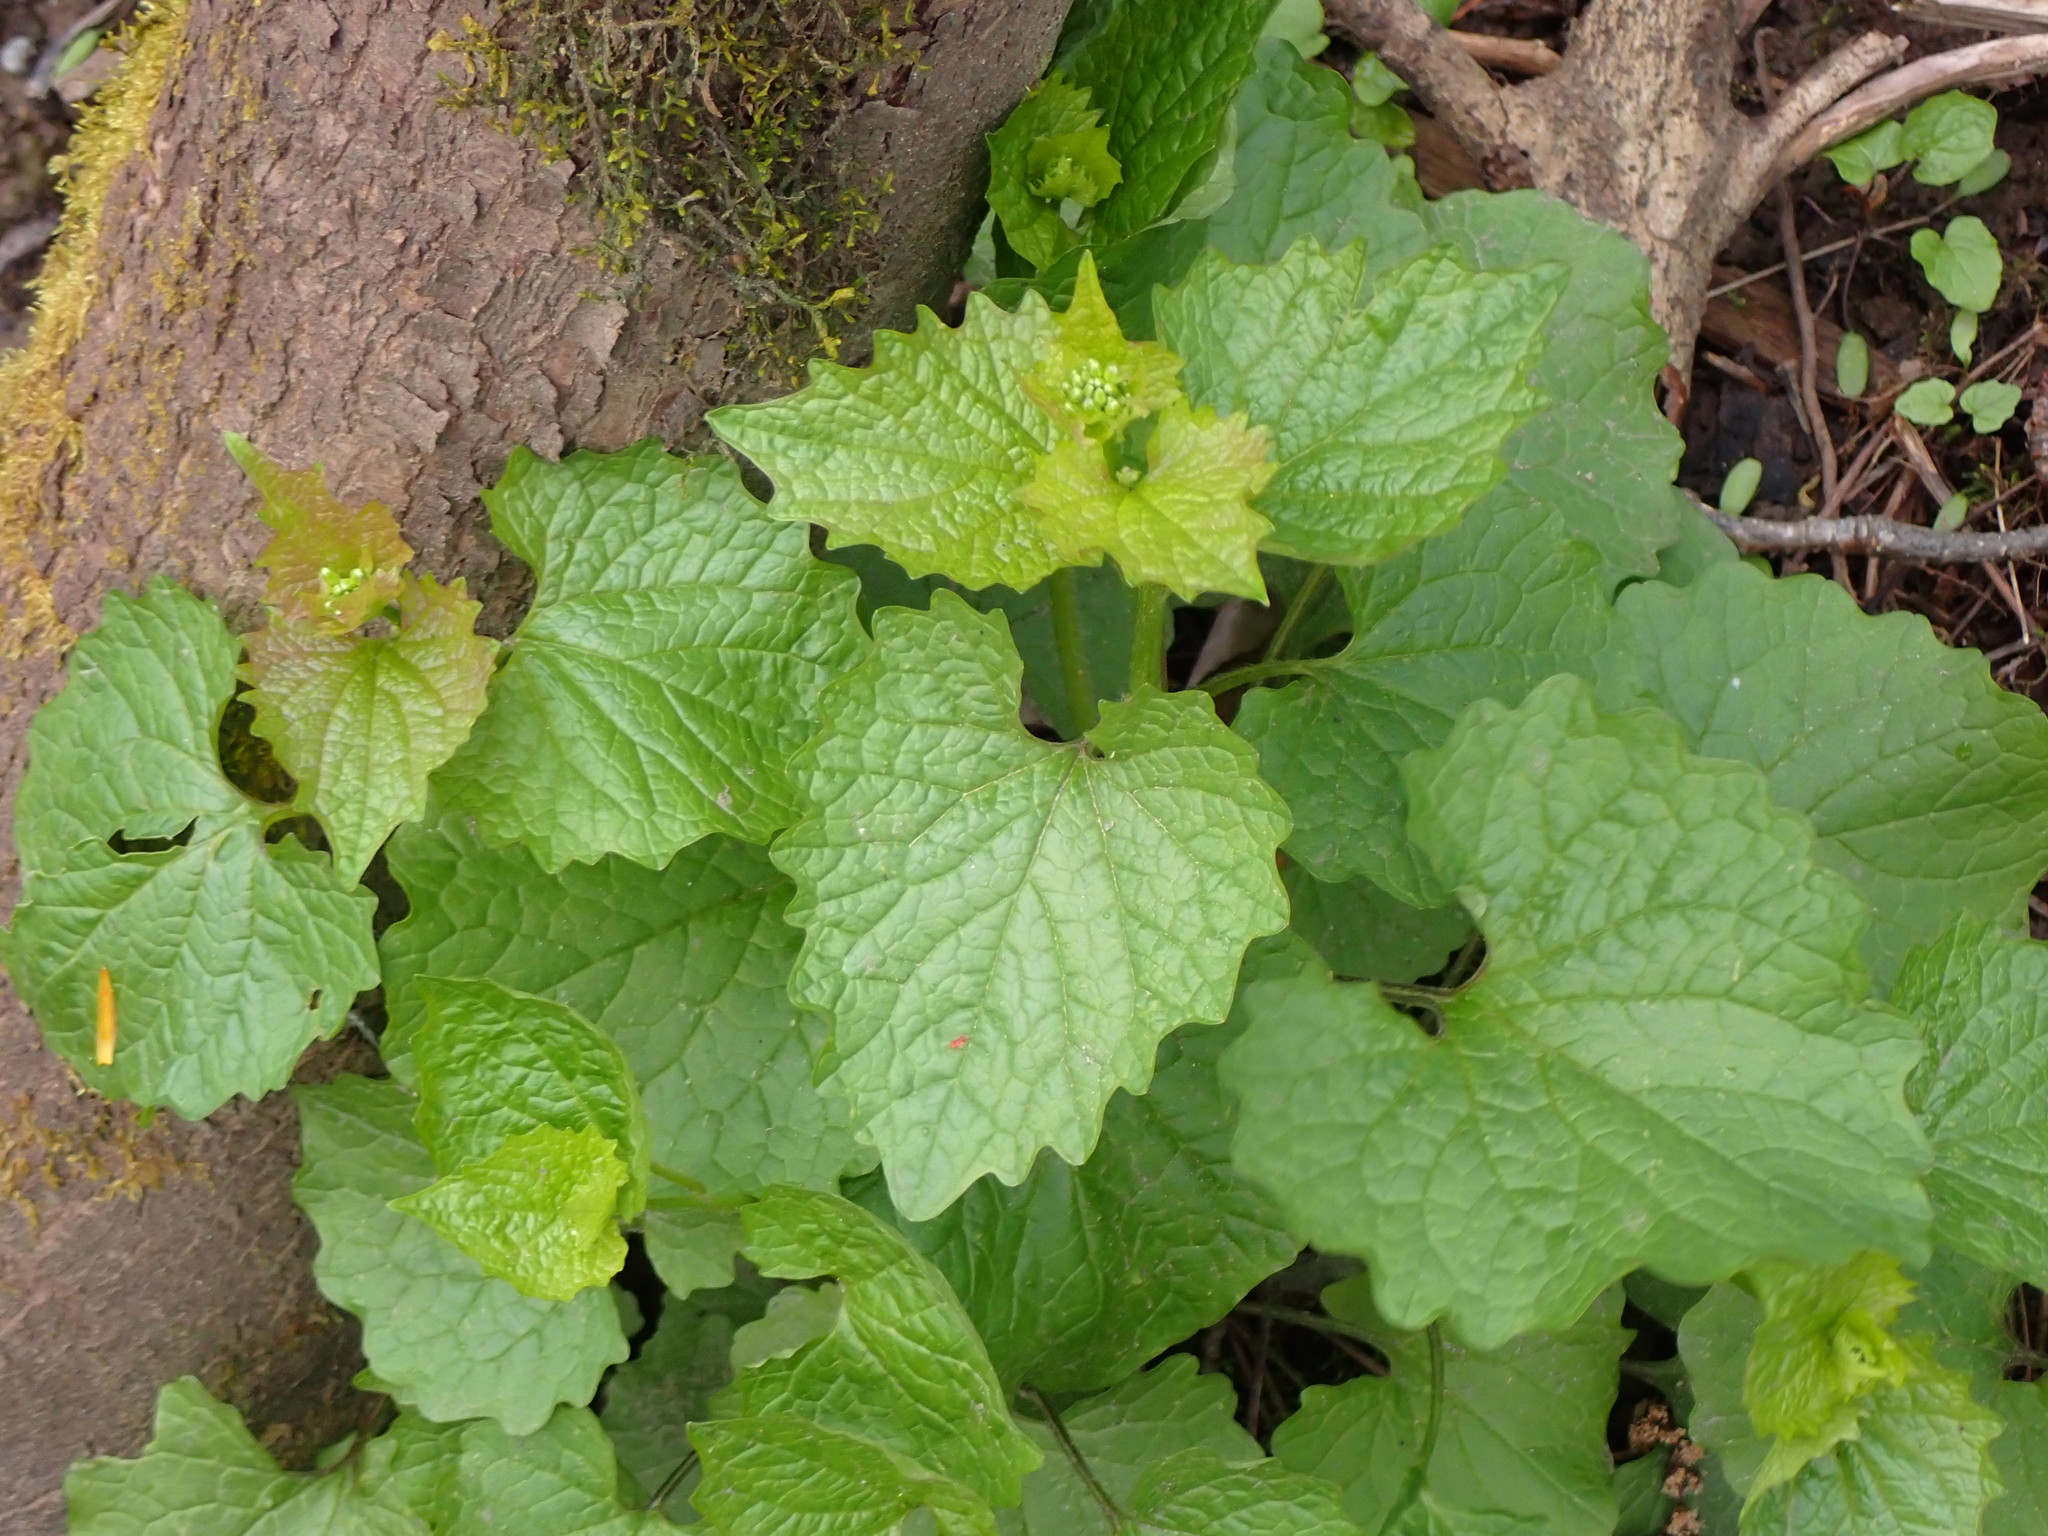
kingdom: Plantae
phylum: Tracheophyta
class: Magnoliopsida
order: Brassicales
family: Brassicaceae
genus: Alliaria
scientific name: Alliaria petiolata
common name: Garlic mustard
